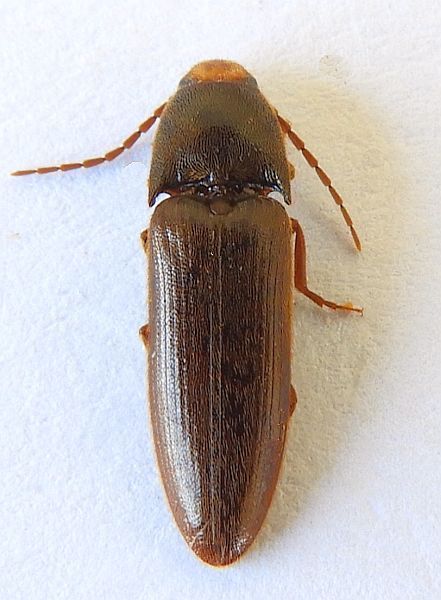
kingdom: Animalia
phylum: Arthropoda
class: Insecta
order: Coleoptera
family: Elateridae
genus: Physorhinus
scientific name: Physorhinus
